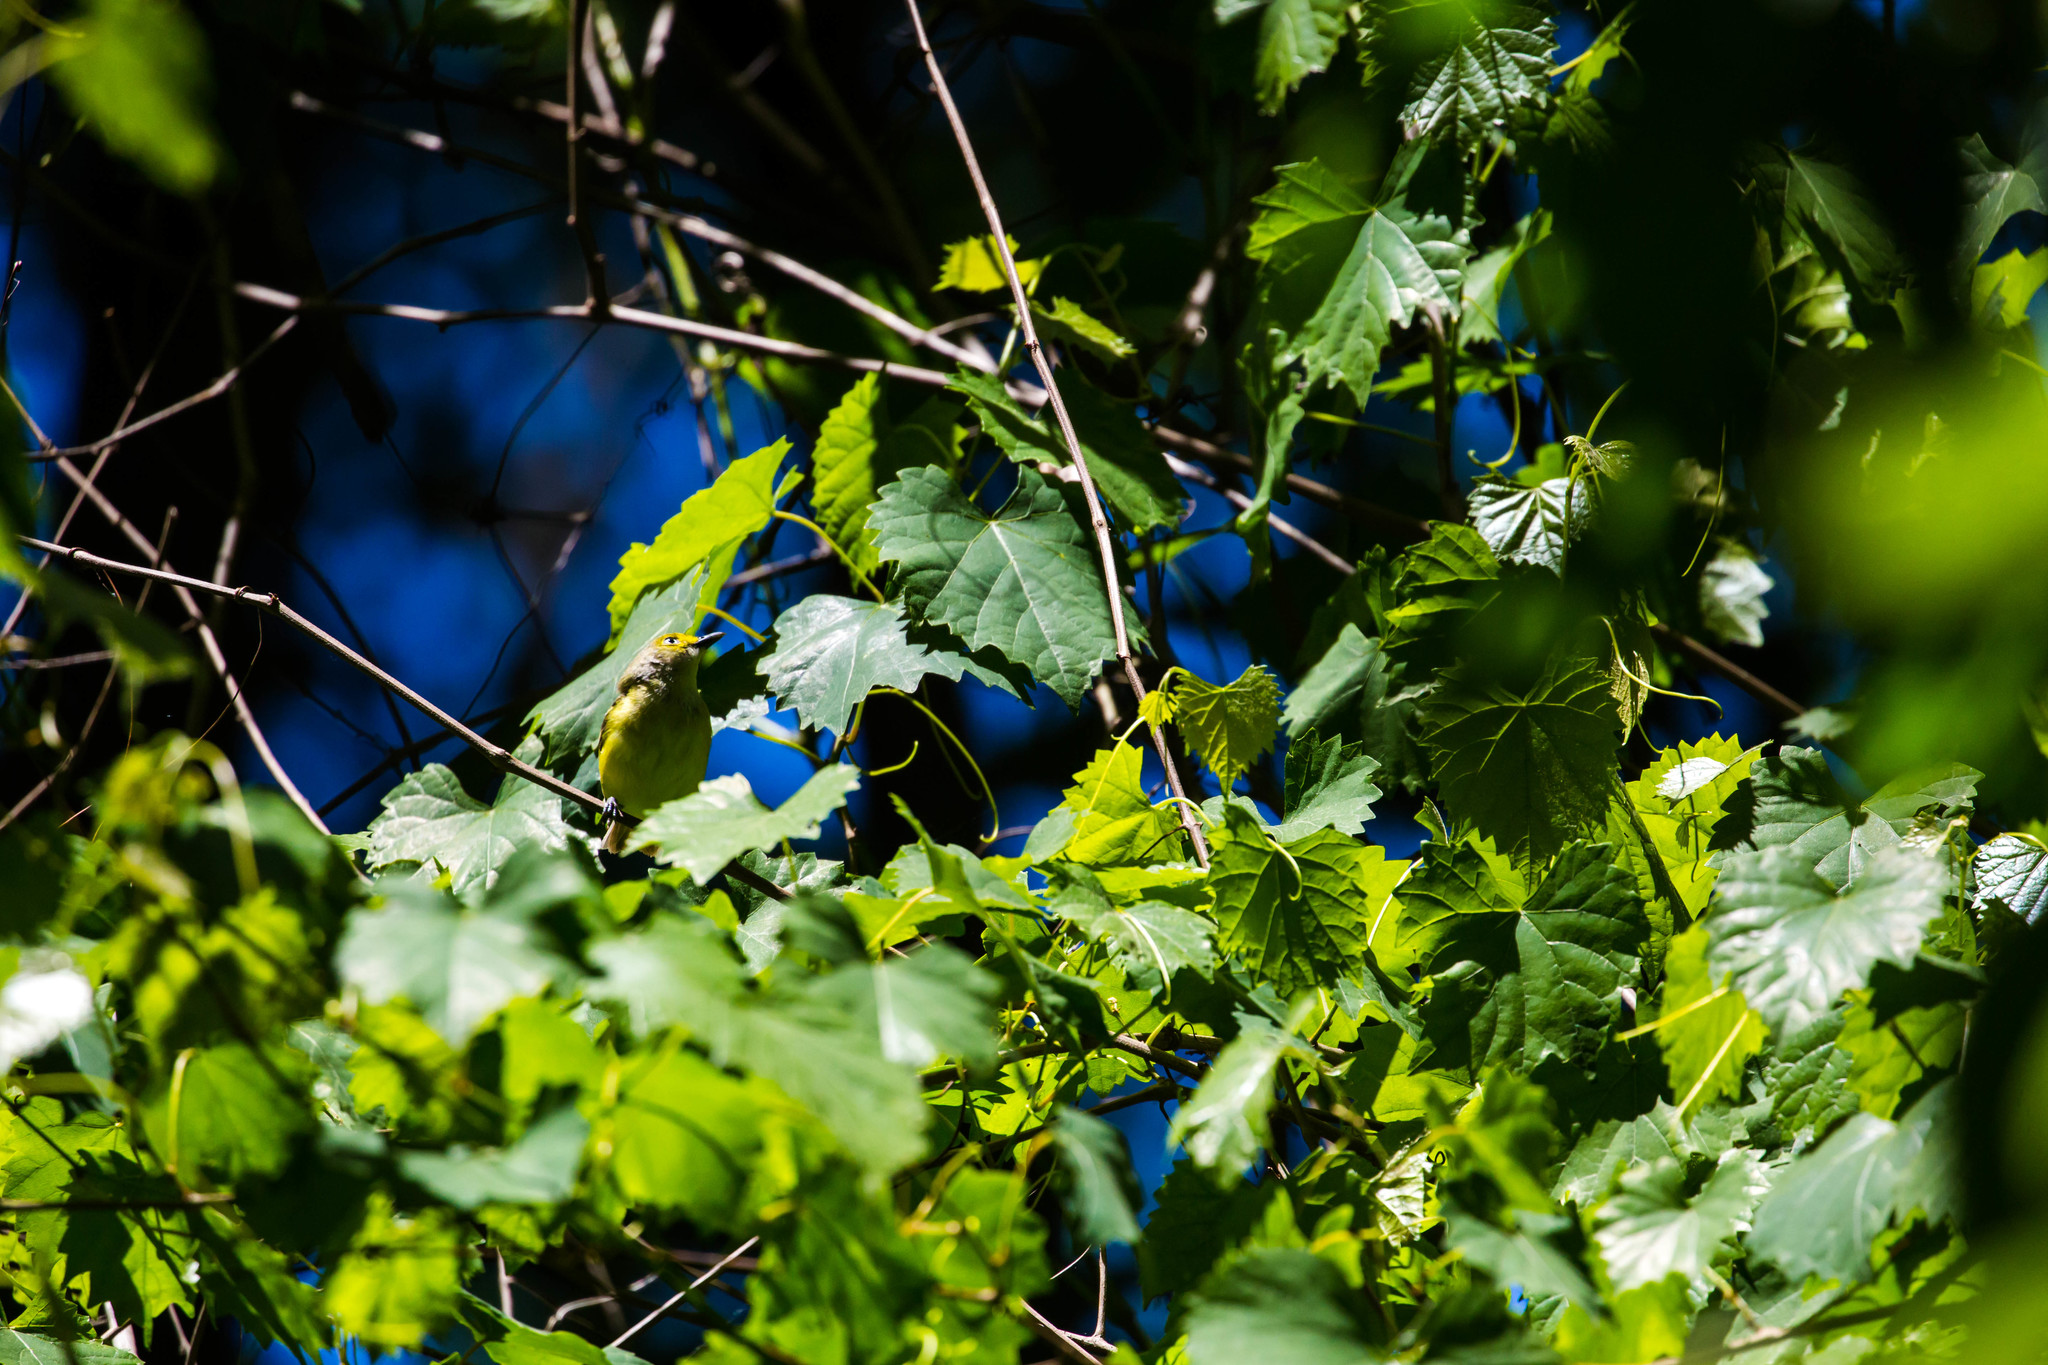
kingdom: Animalia
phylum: Chordata
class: Aves
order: Passeriformes
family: Vireonidae
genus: Vireo
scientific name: Vireo griseus
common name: White-eyed vireo
